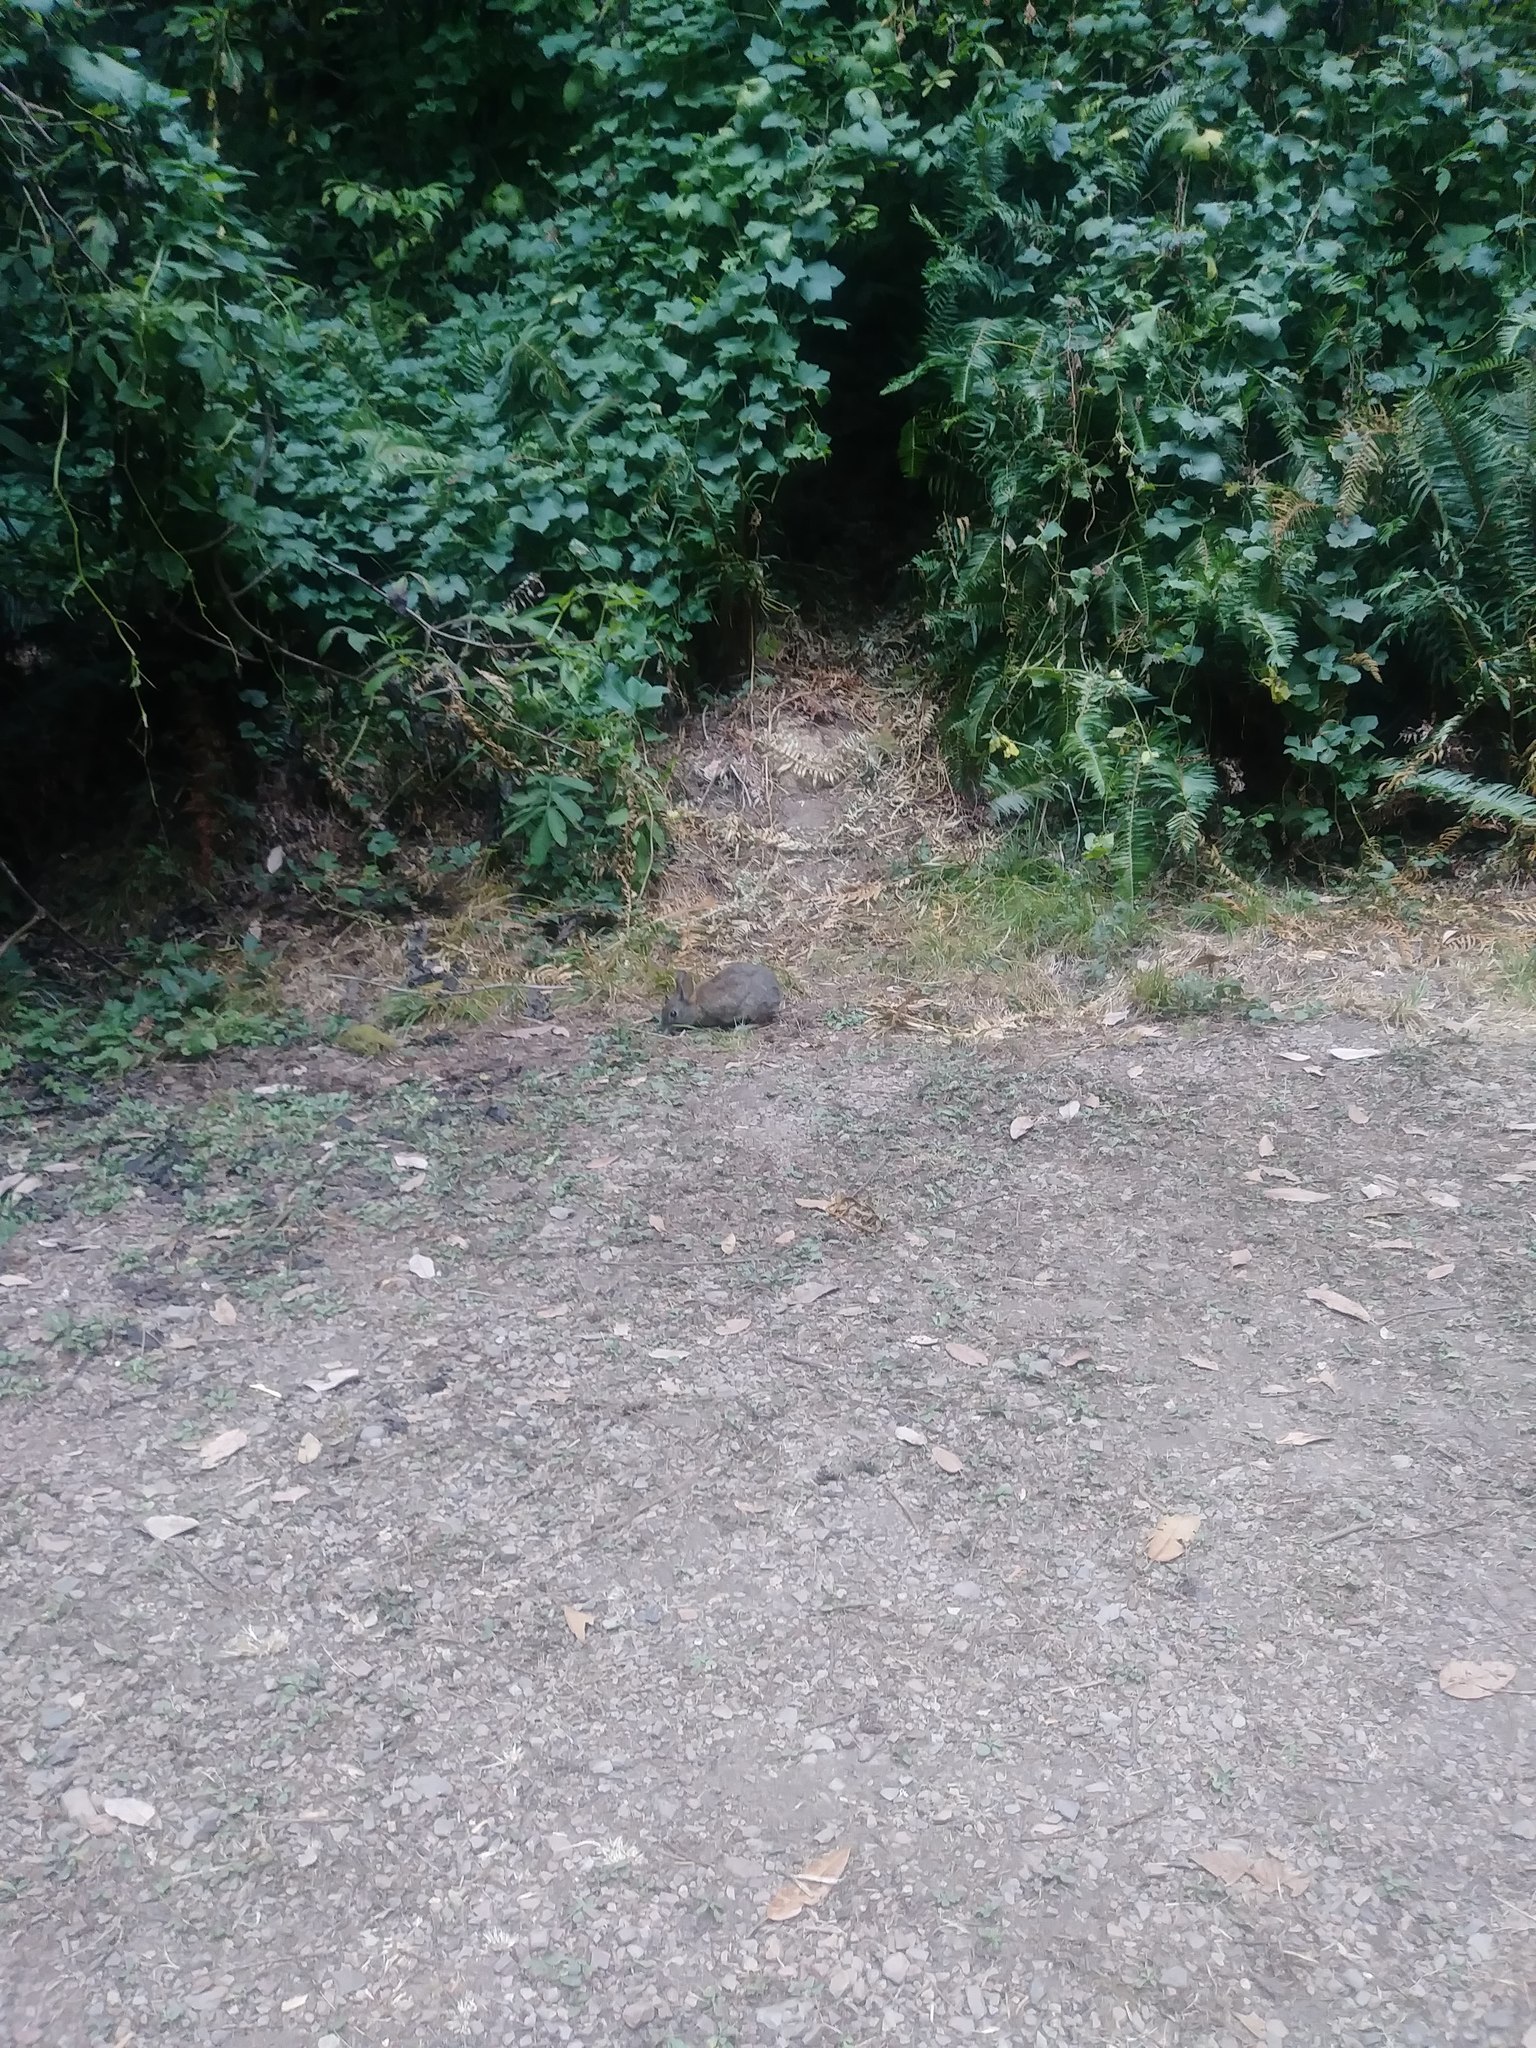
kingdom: Animalia
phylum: Chordata
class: Mammalia
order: Lagomorpha
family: Leporidae
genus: Sylvilagus
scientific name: Sylvilagus bachmani
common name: Brush rabbit
